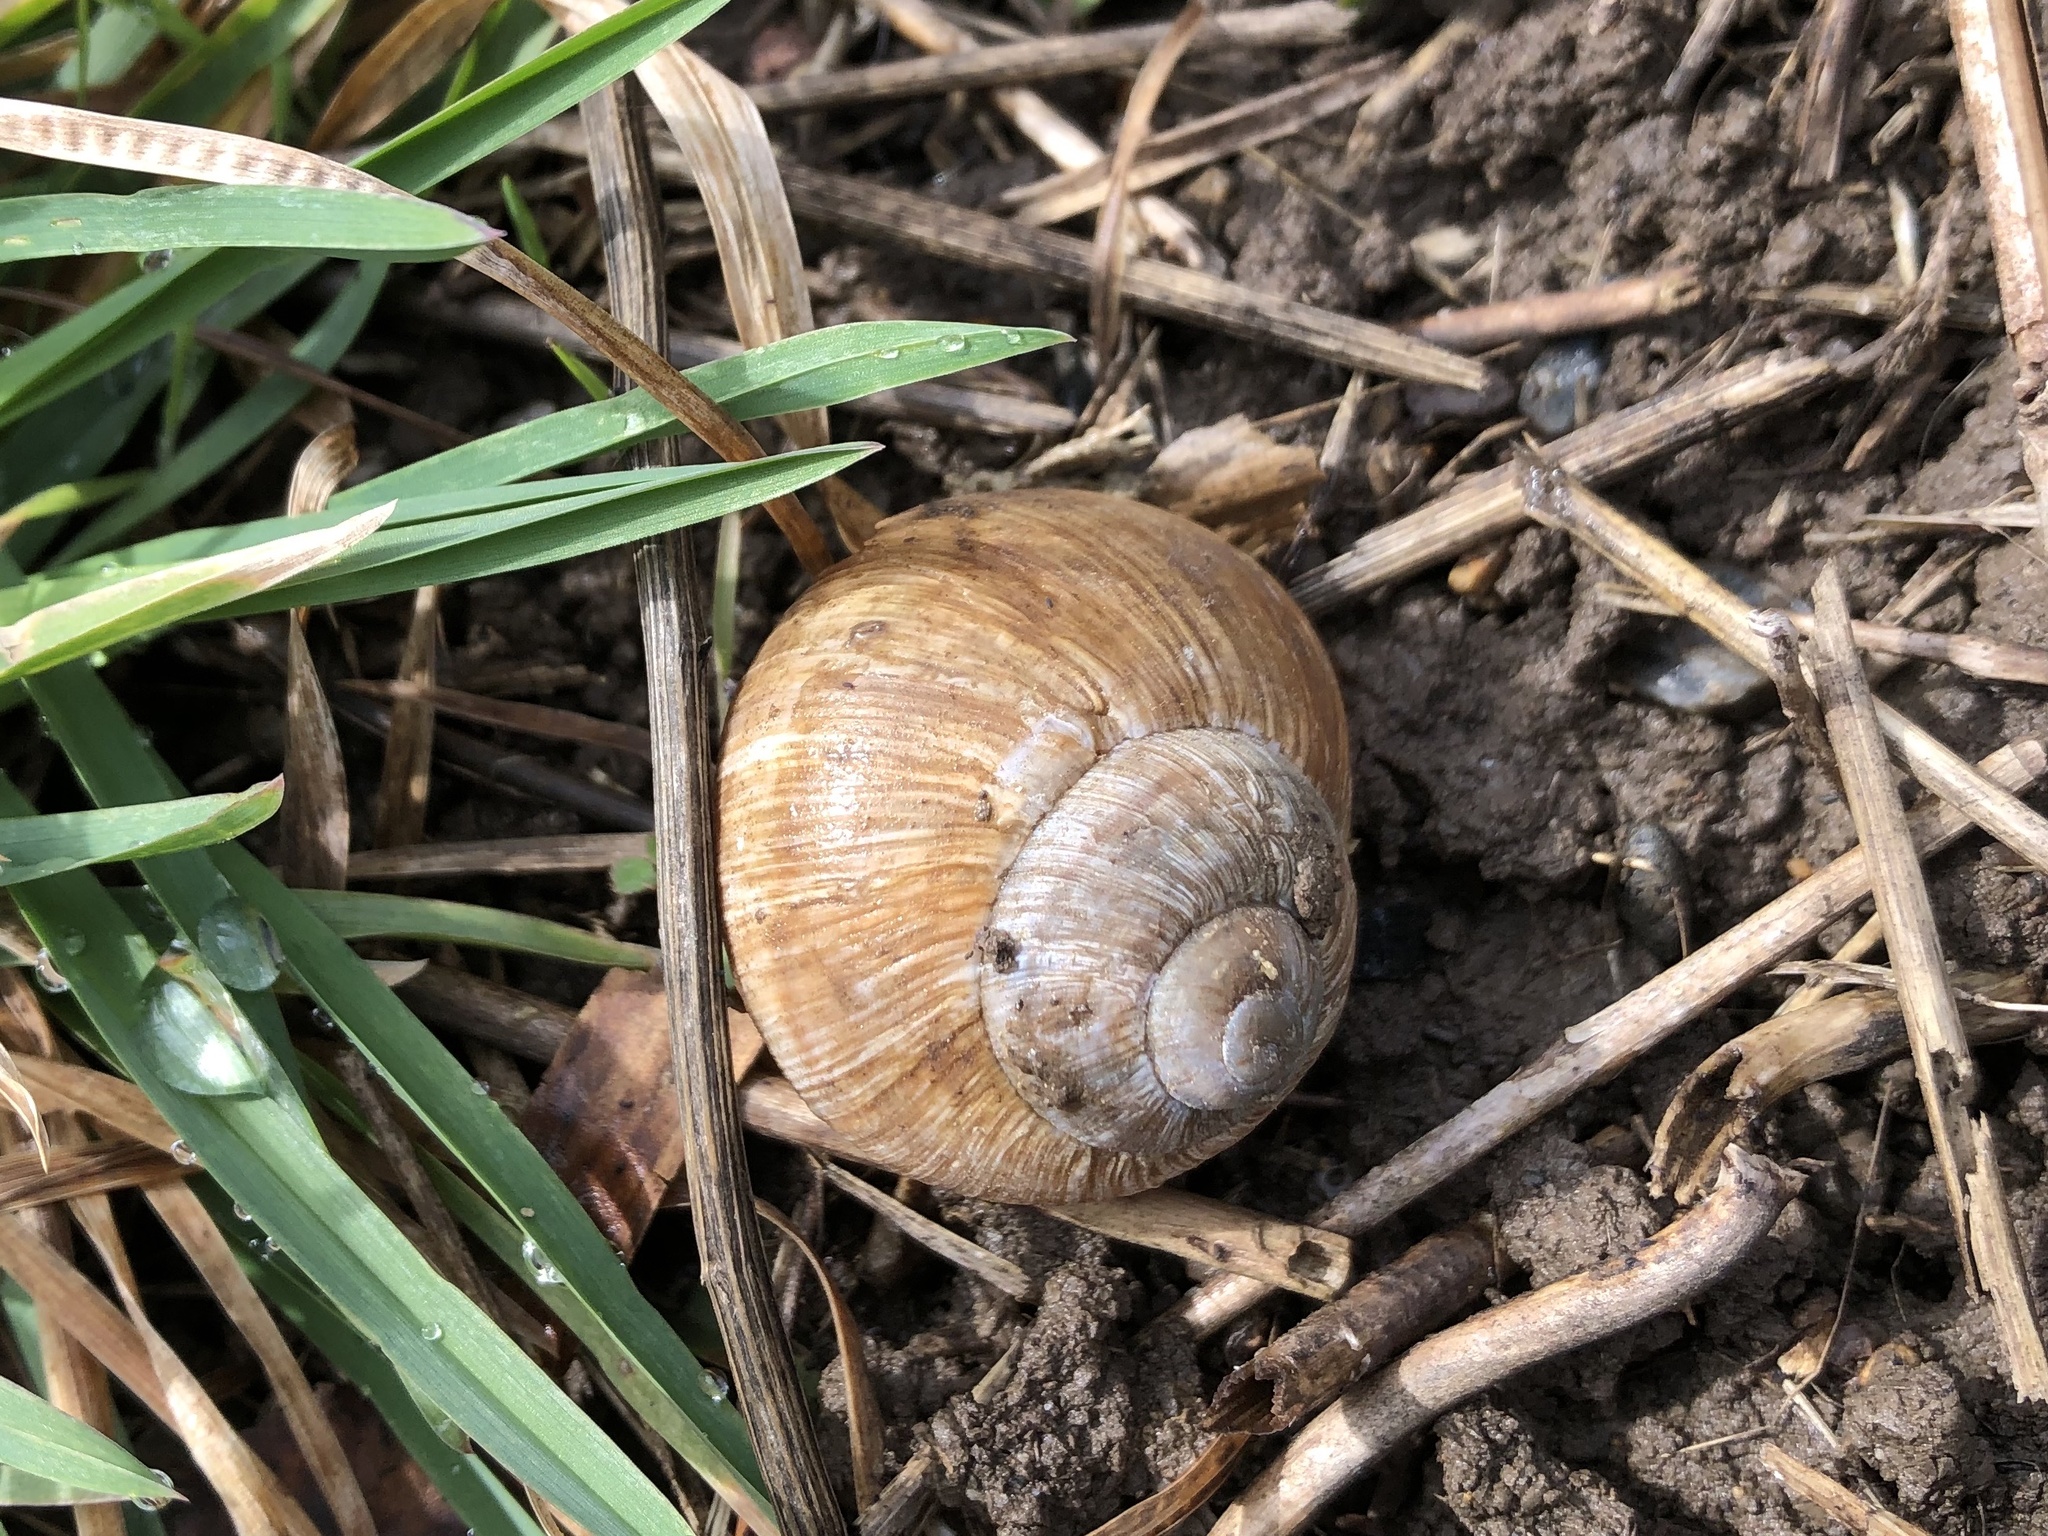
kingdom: Animalia
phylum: Mollusca
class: Gastropoda
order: Stylommatophora
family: Helicidae
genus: Helix
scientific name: Helix pomatia
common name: Roman snail
